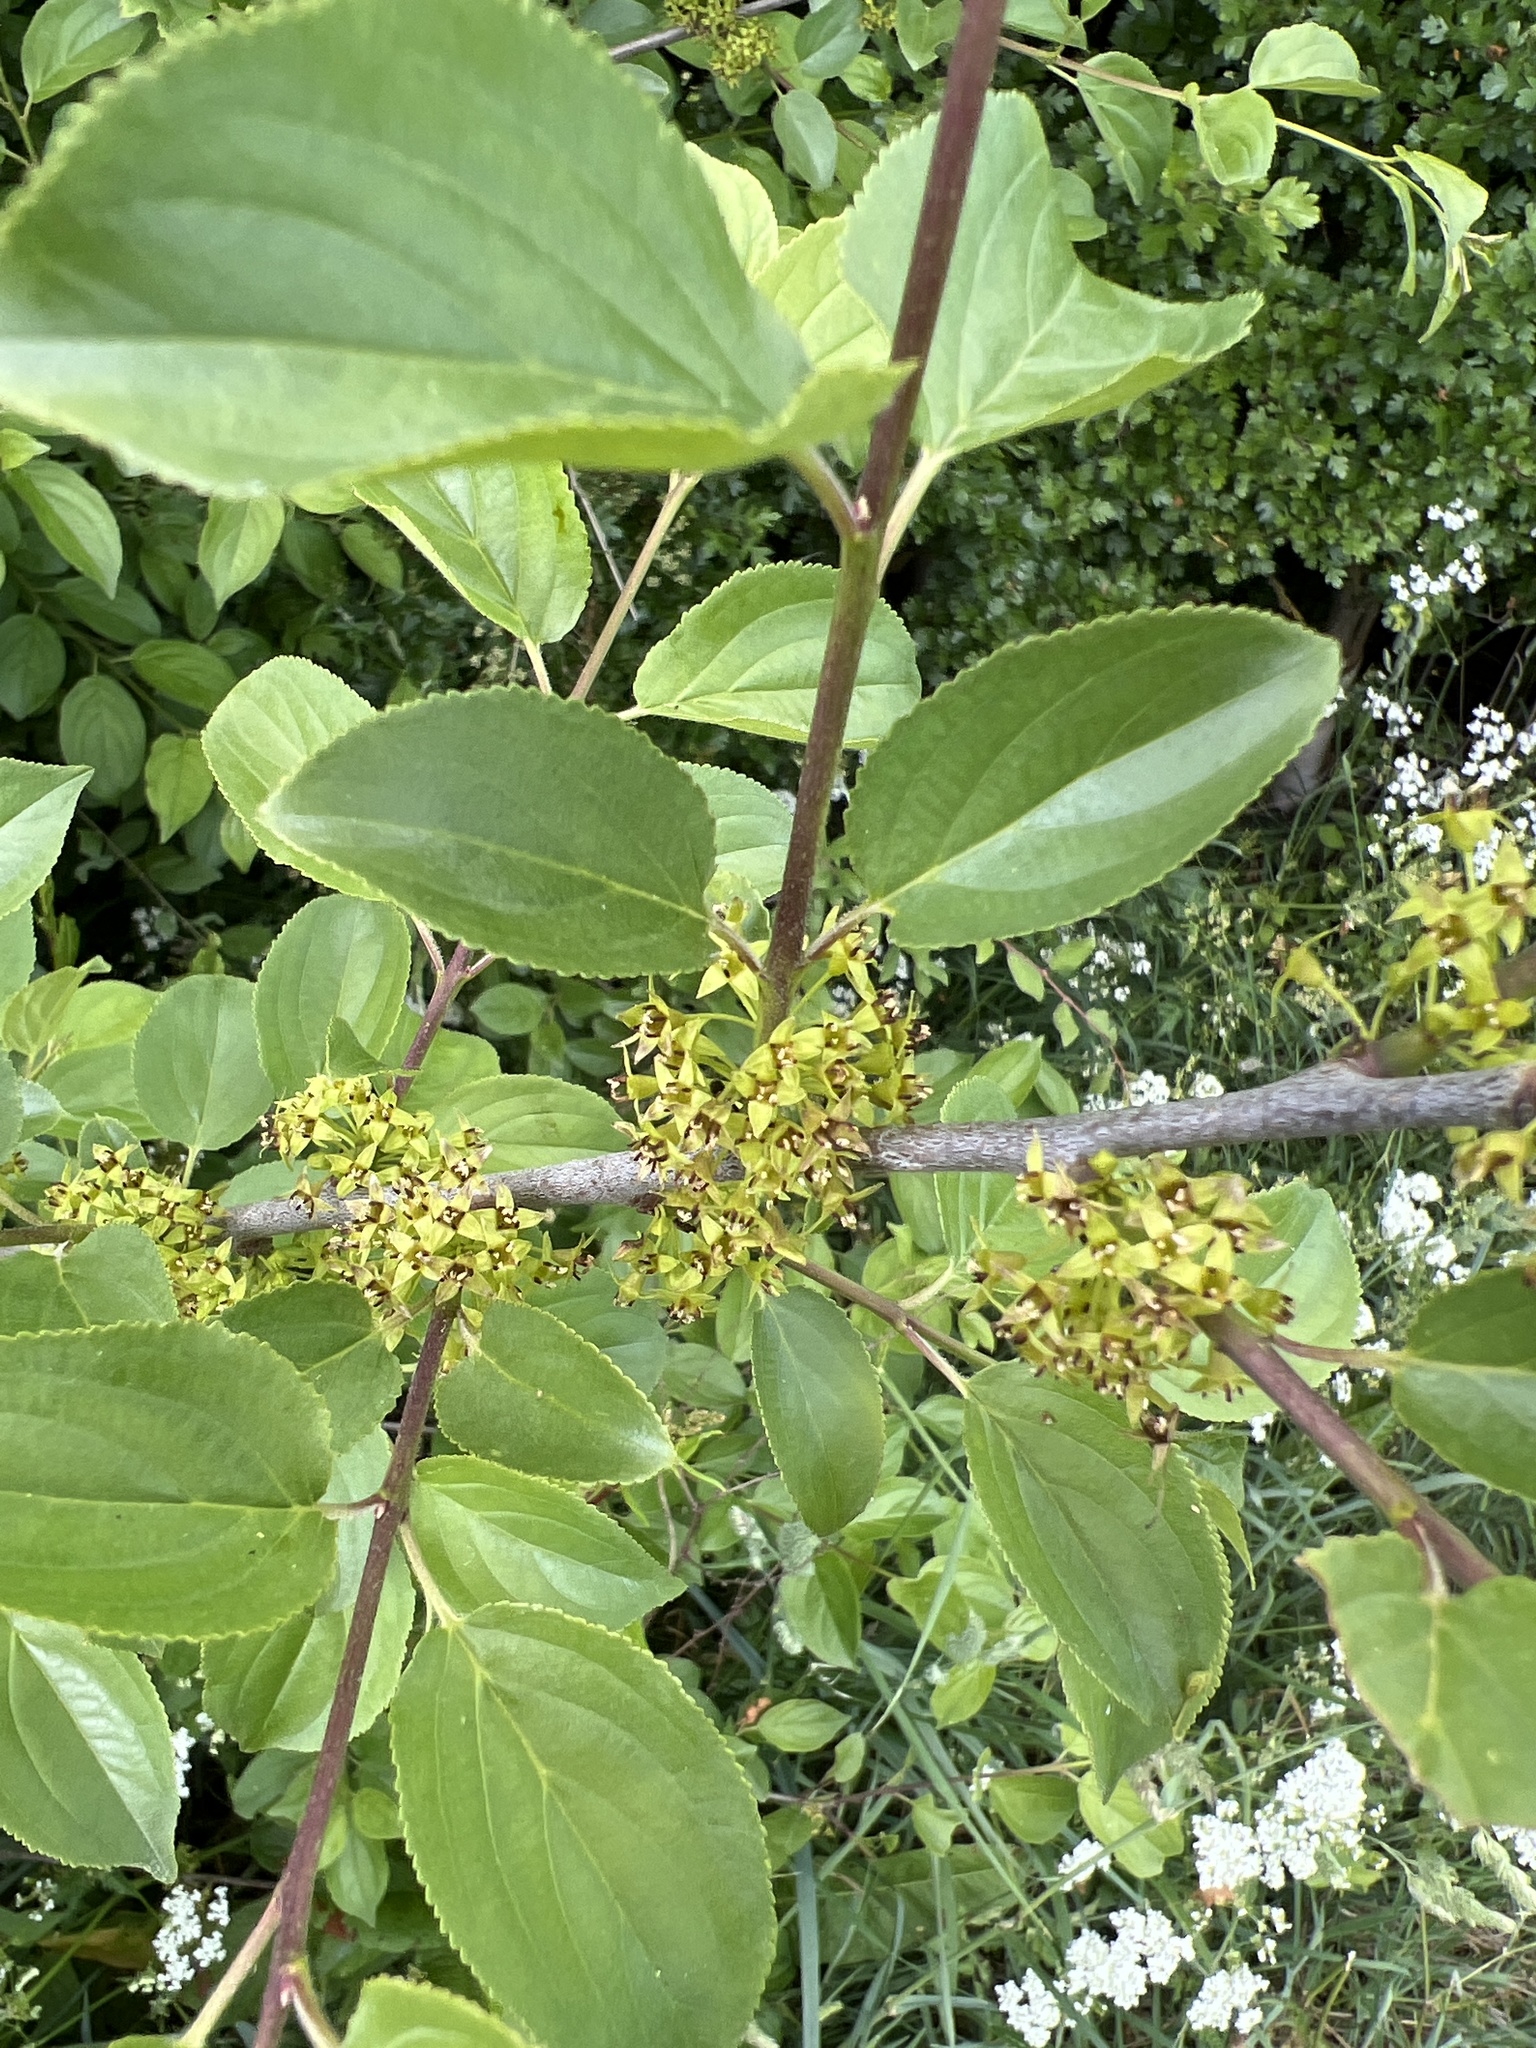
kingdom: Plantae
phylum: Tracheophyta
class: Magnoliopsida
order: Rosales
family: Rhamnaceae
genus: Rhamnus
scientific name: Rhamnus cathartica
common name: Common buckthorn
